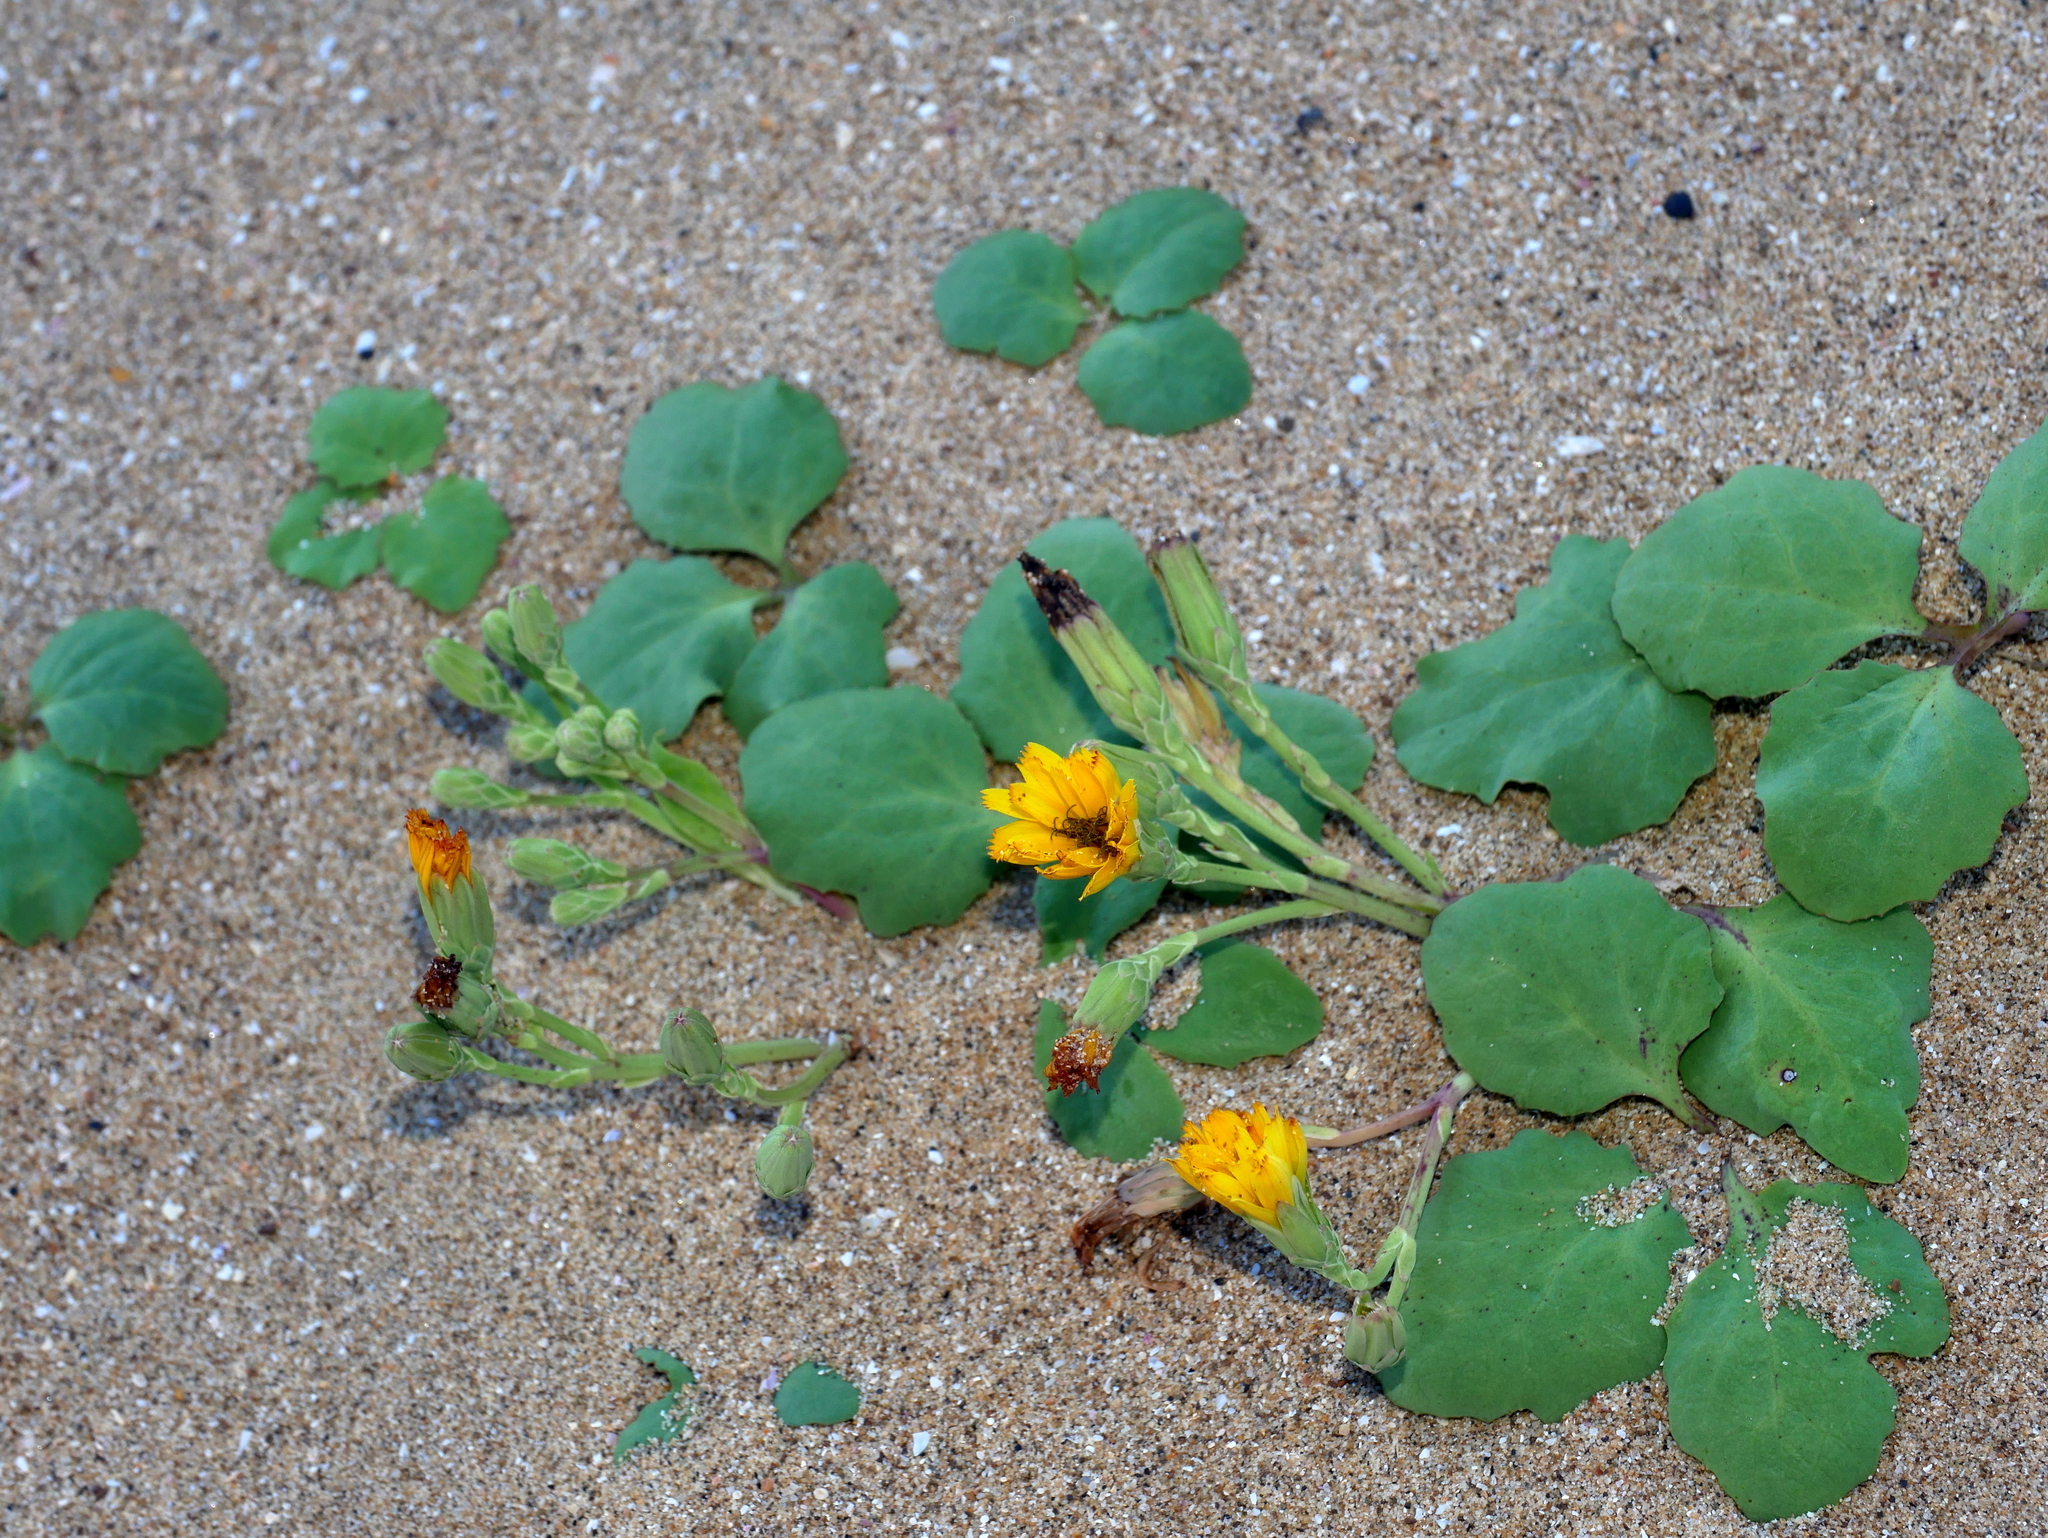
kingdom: Plantae
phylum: Tracheophyta
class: Magnoliopsida
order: Asterales
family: Asteraceae
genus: Ixeris
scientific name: Ixeris repens
